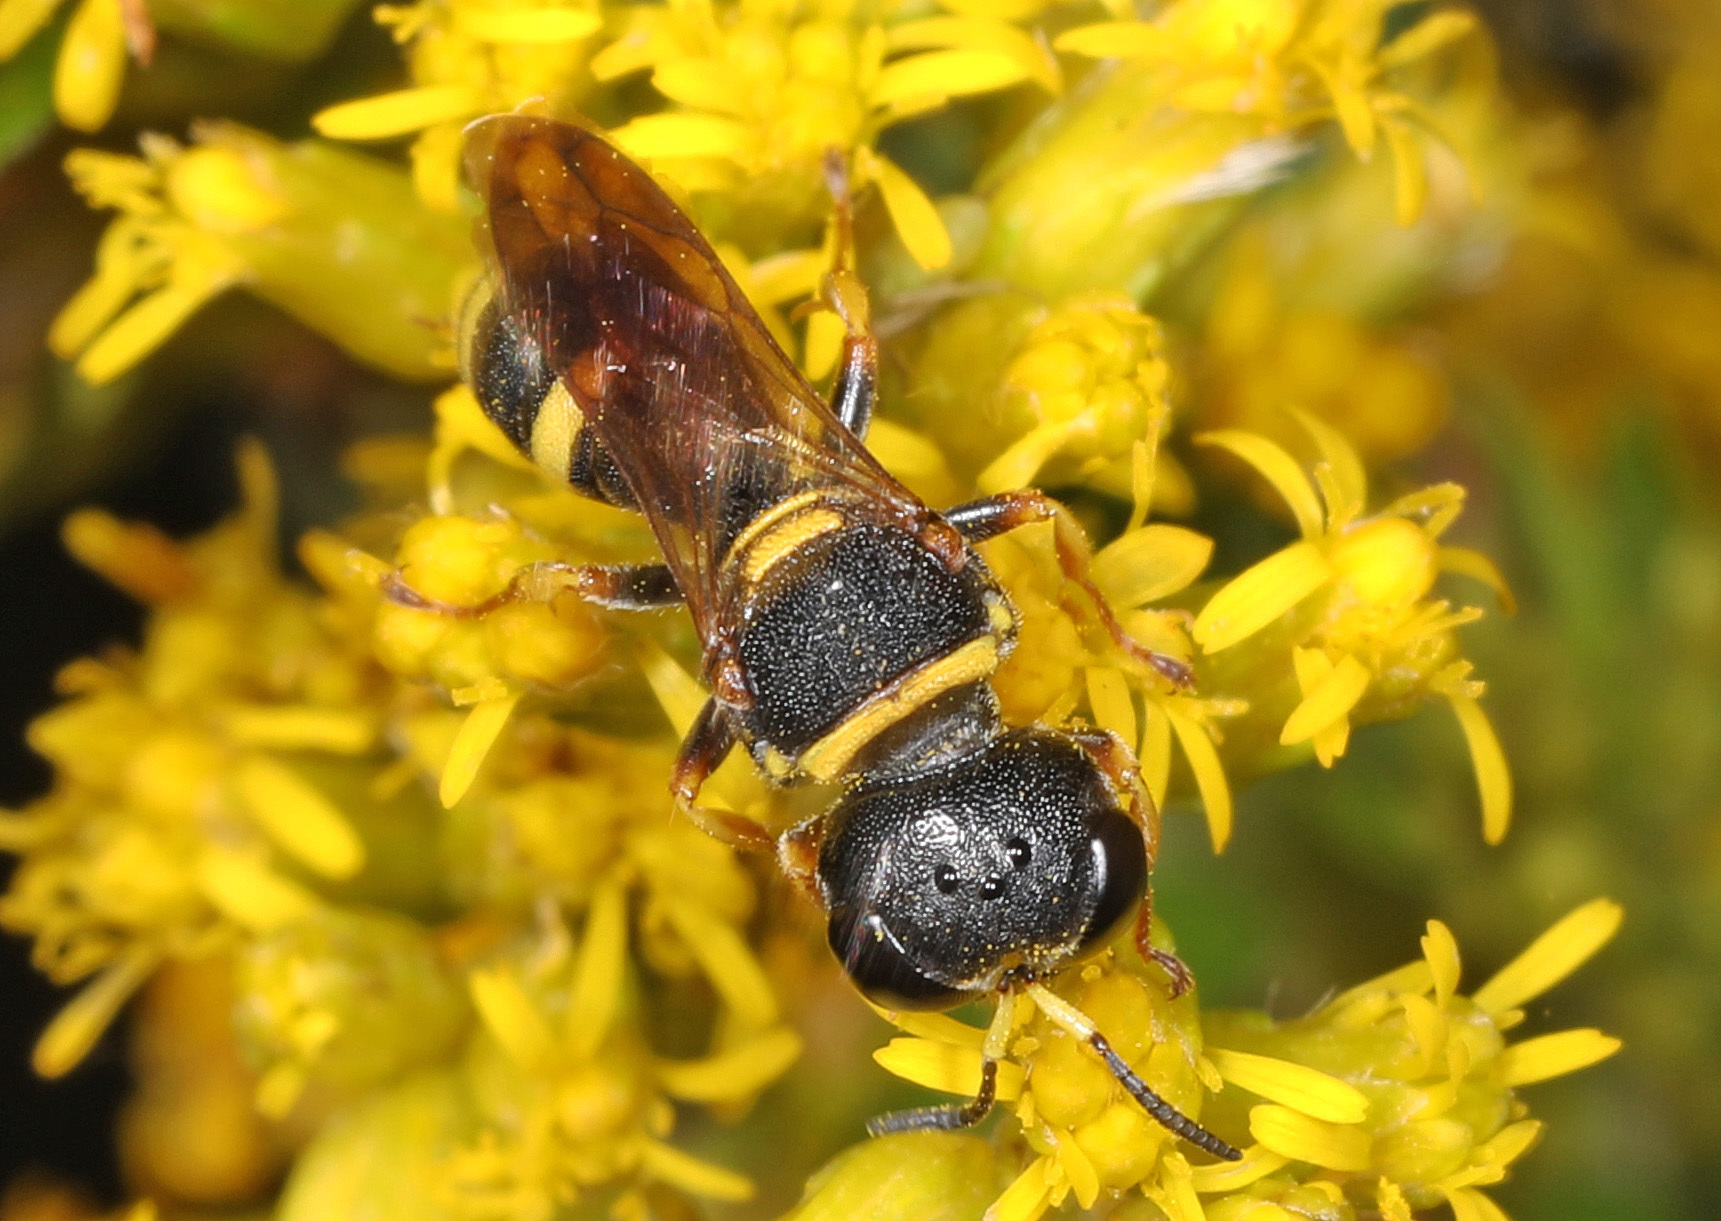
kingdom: Animalia
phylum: Arthropoda
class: Insecta
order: Hymenoptera
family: Crabronidae
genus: Ectemnius
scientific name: Ectemnius scaber
